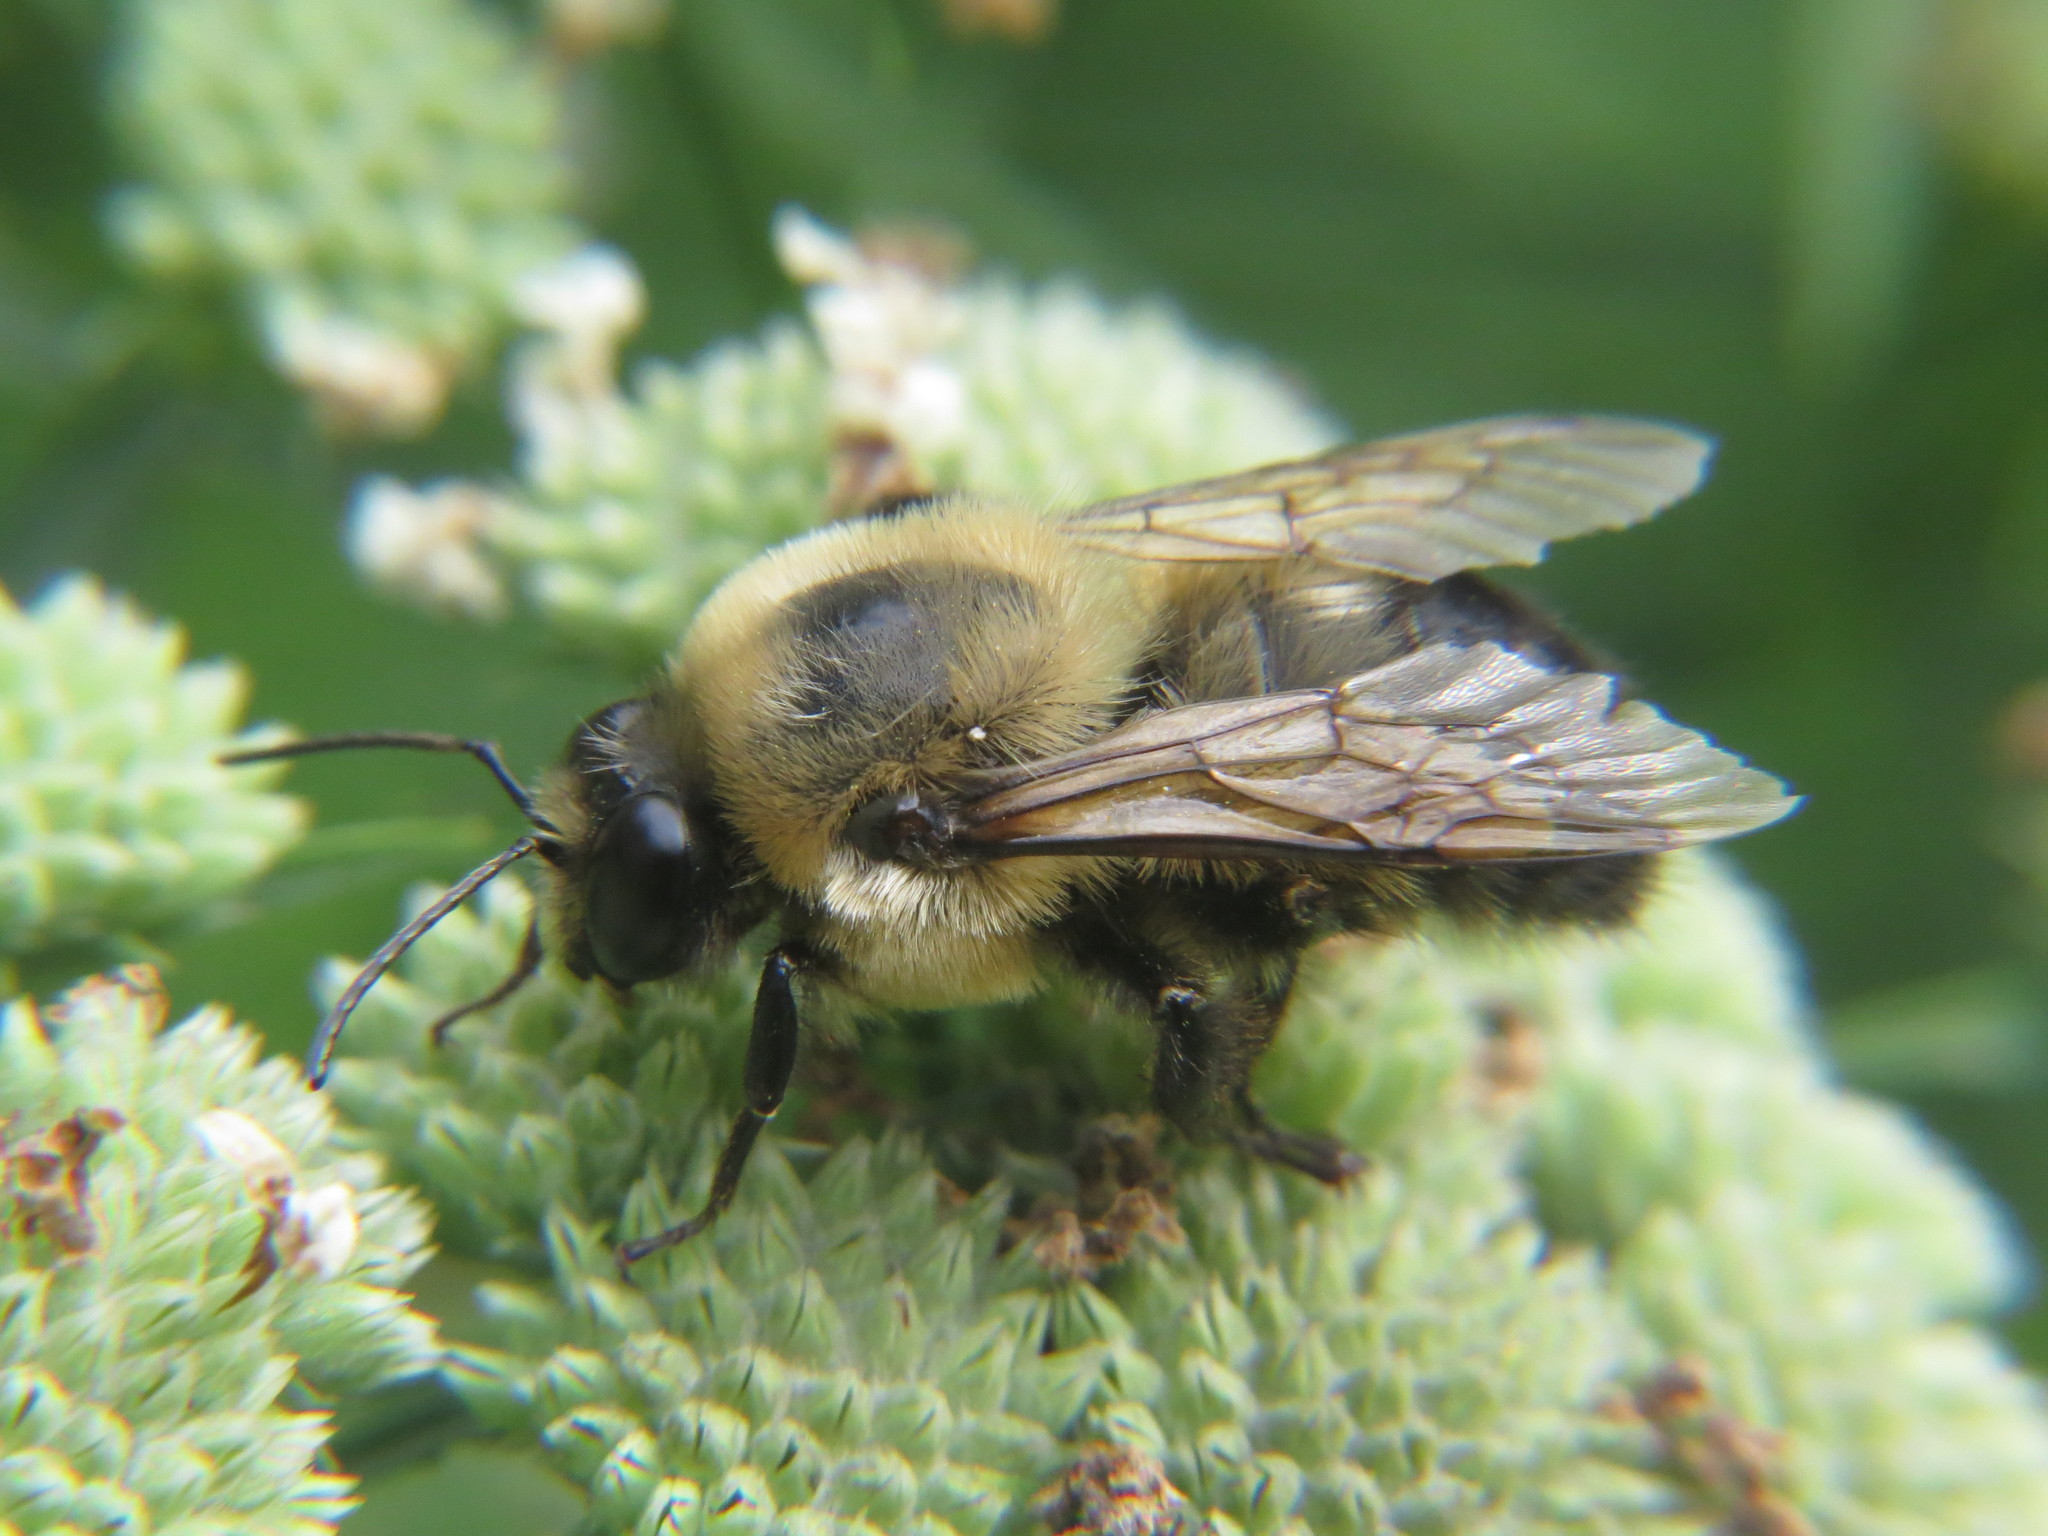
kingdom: Animalia
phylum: Arthropoda
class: Insecta
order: Hymenoptera
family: Apidae
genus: Bombus
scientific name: Bombus griseocollis
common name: Brown-belted bumble bee
